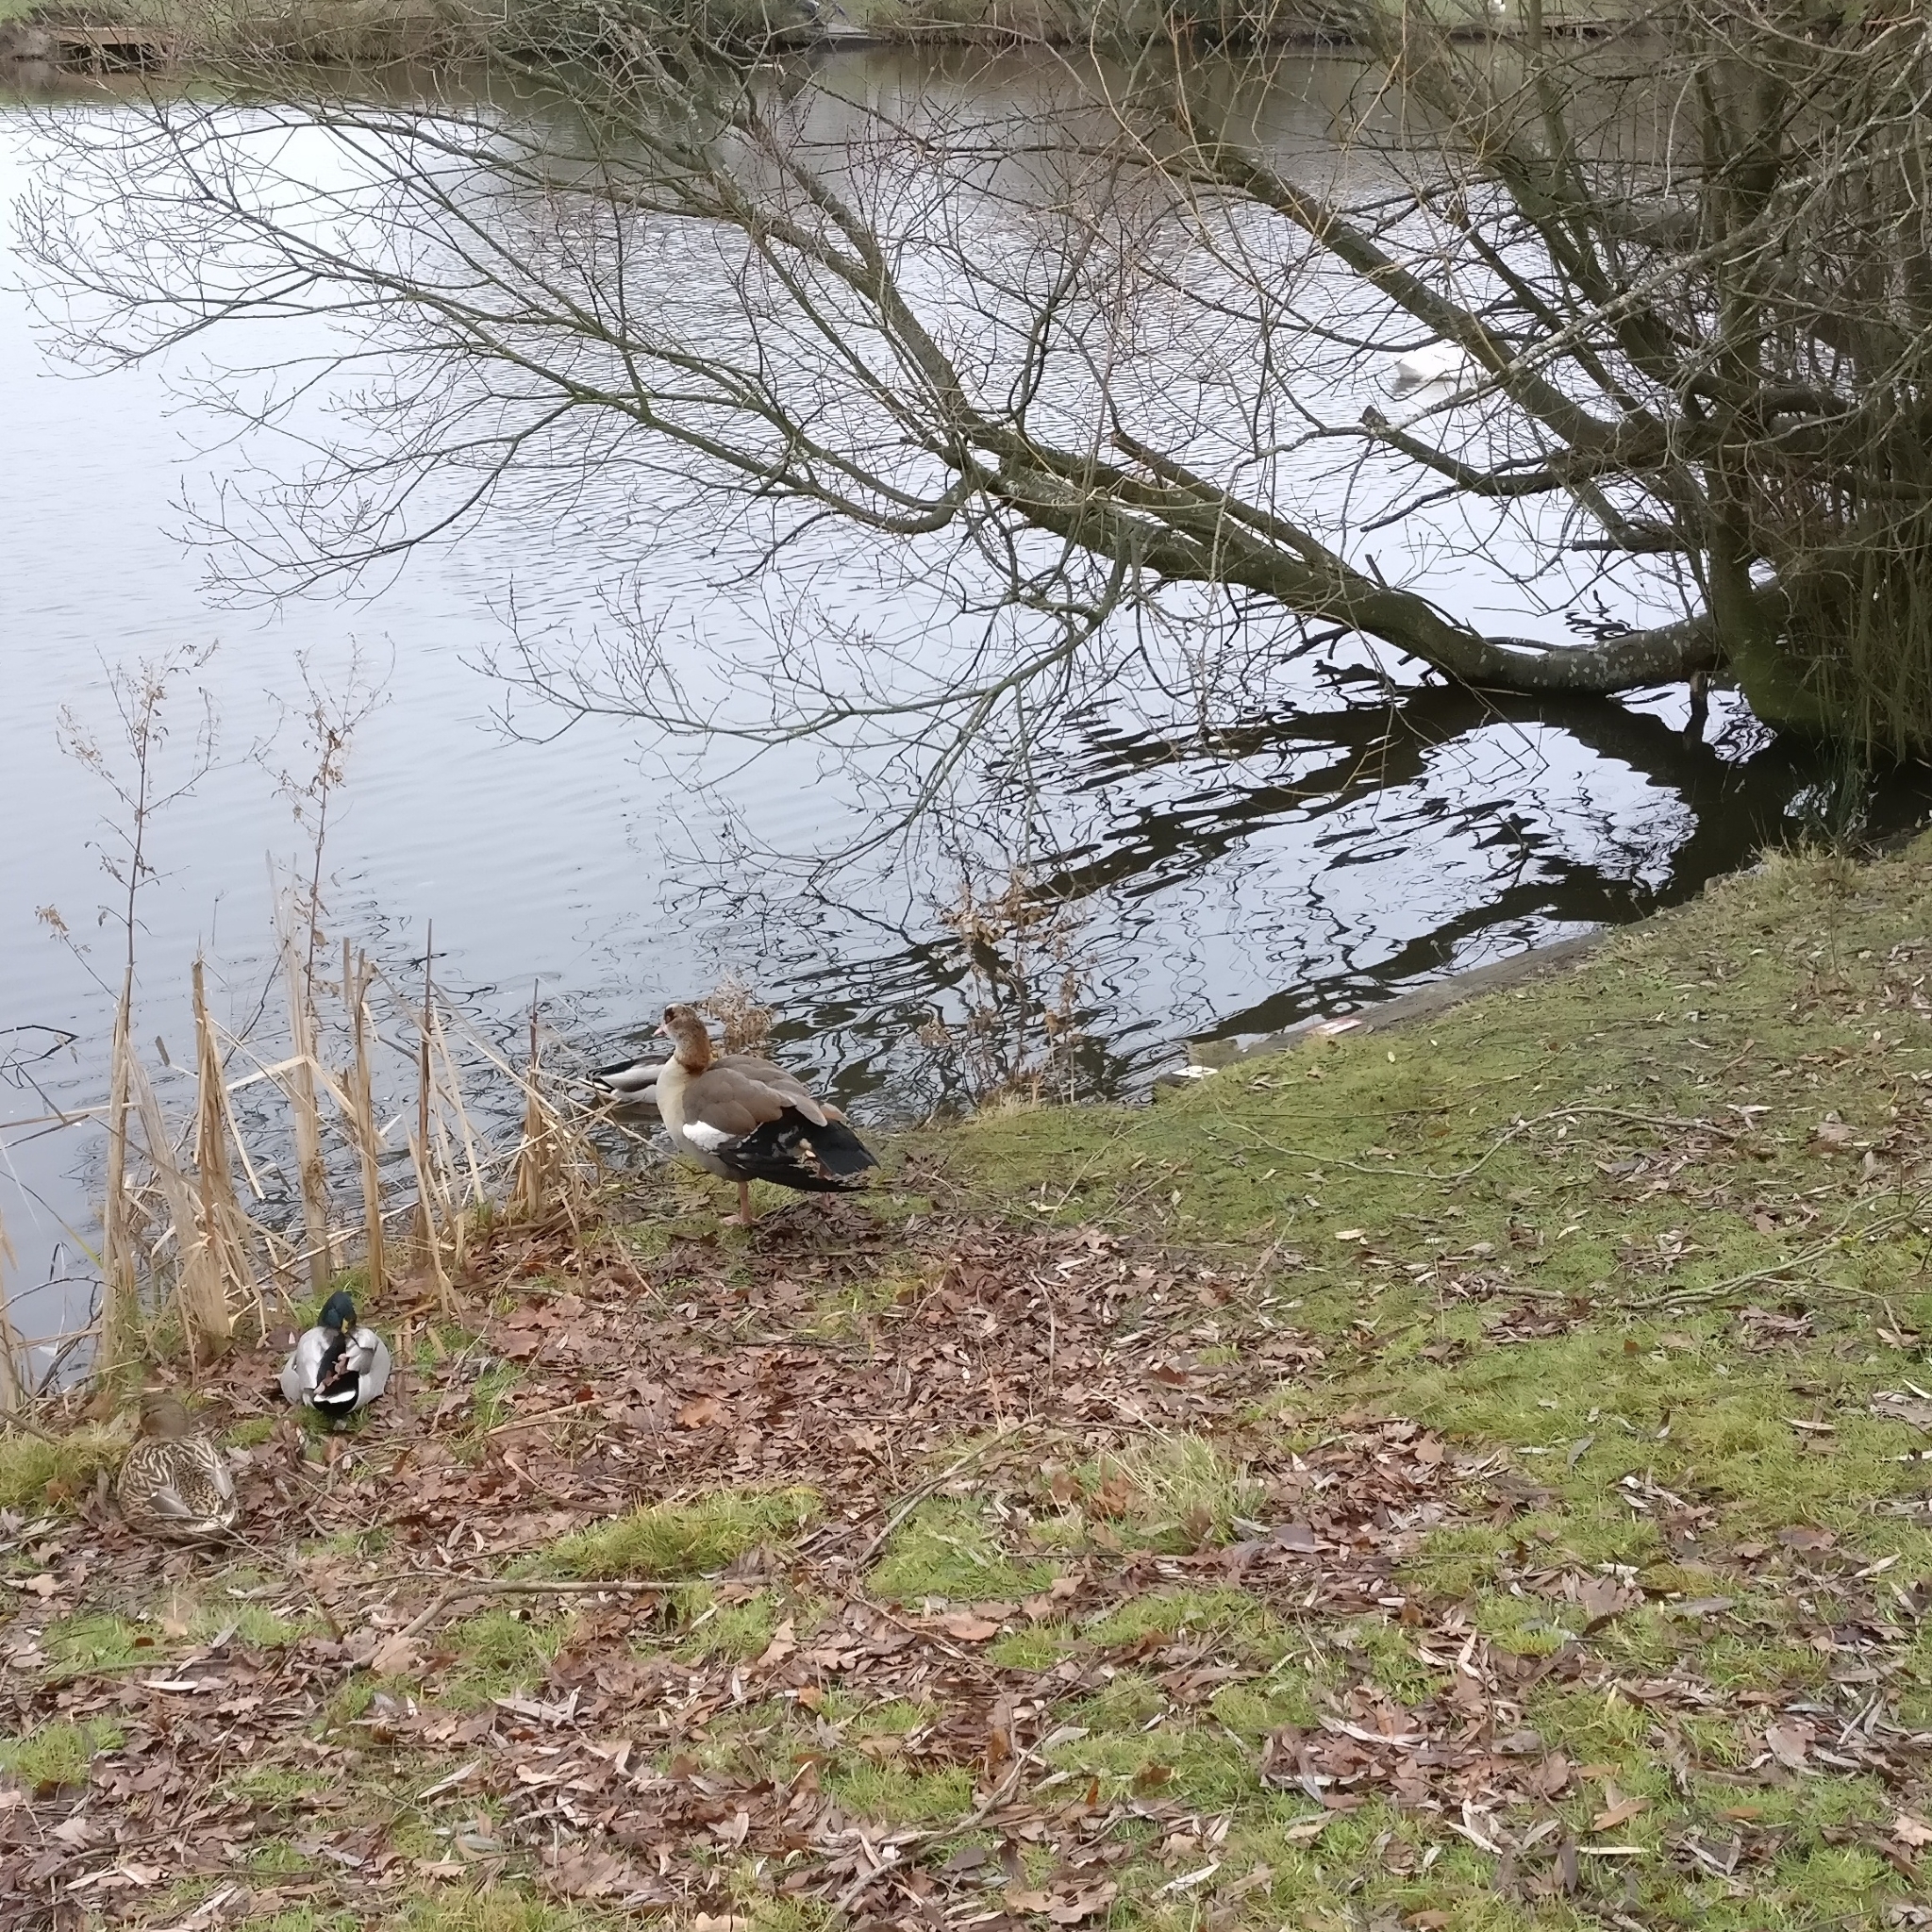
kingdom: Animalia
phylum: Chordata
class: Aves
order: Anseriformes
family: Anatidae
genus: Alopochen
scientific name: Alopochen aegyptiaca
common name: Egyptian goose
